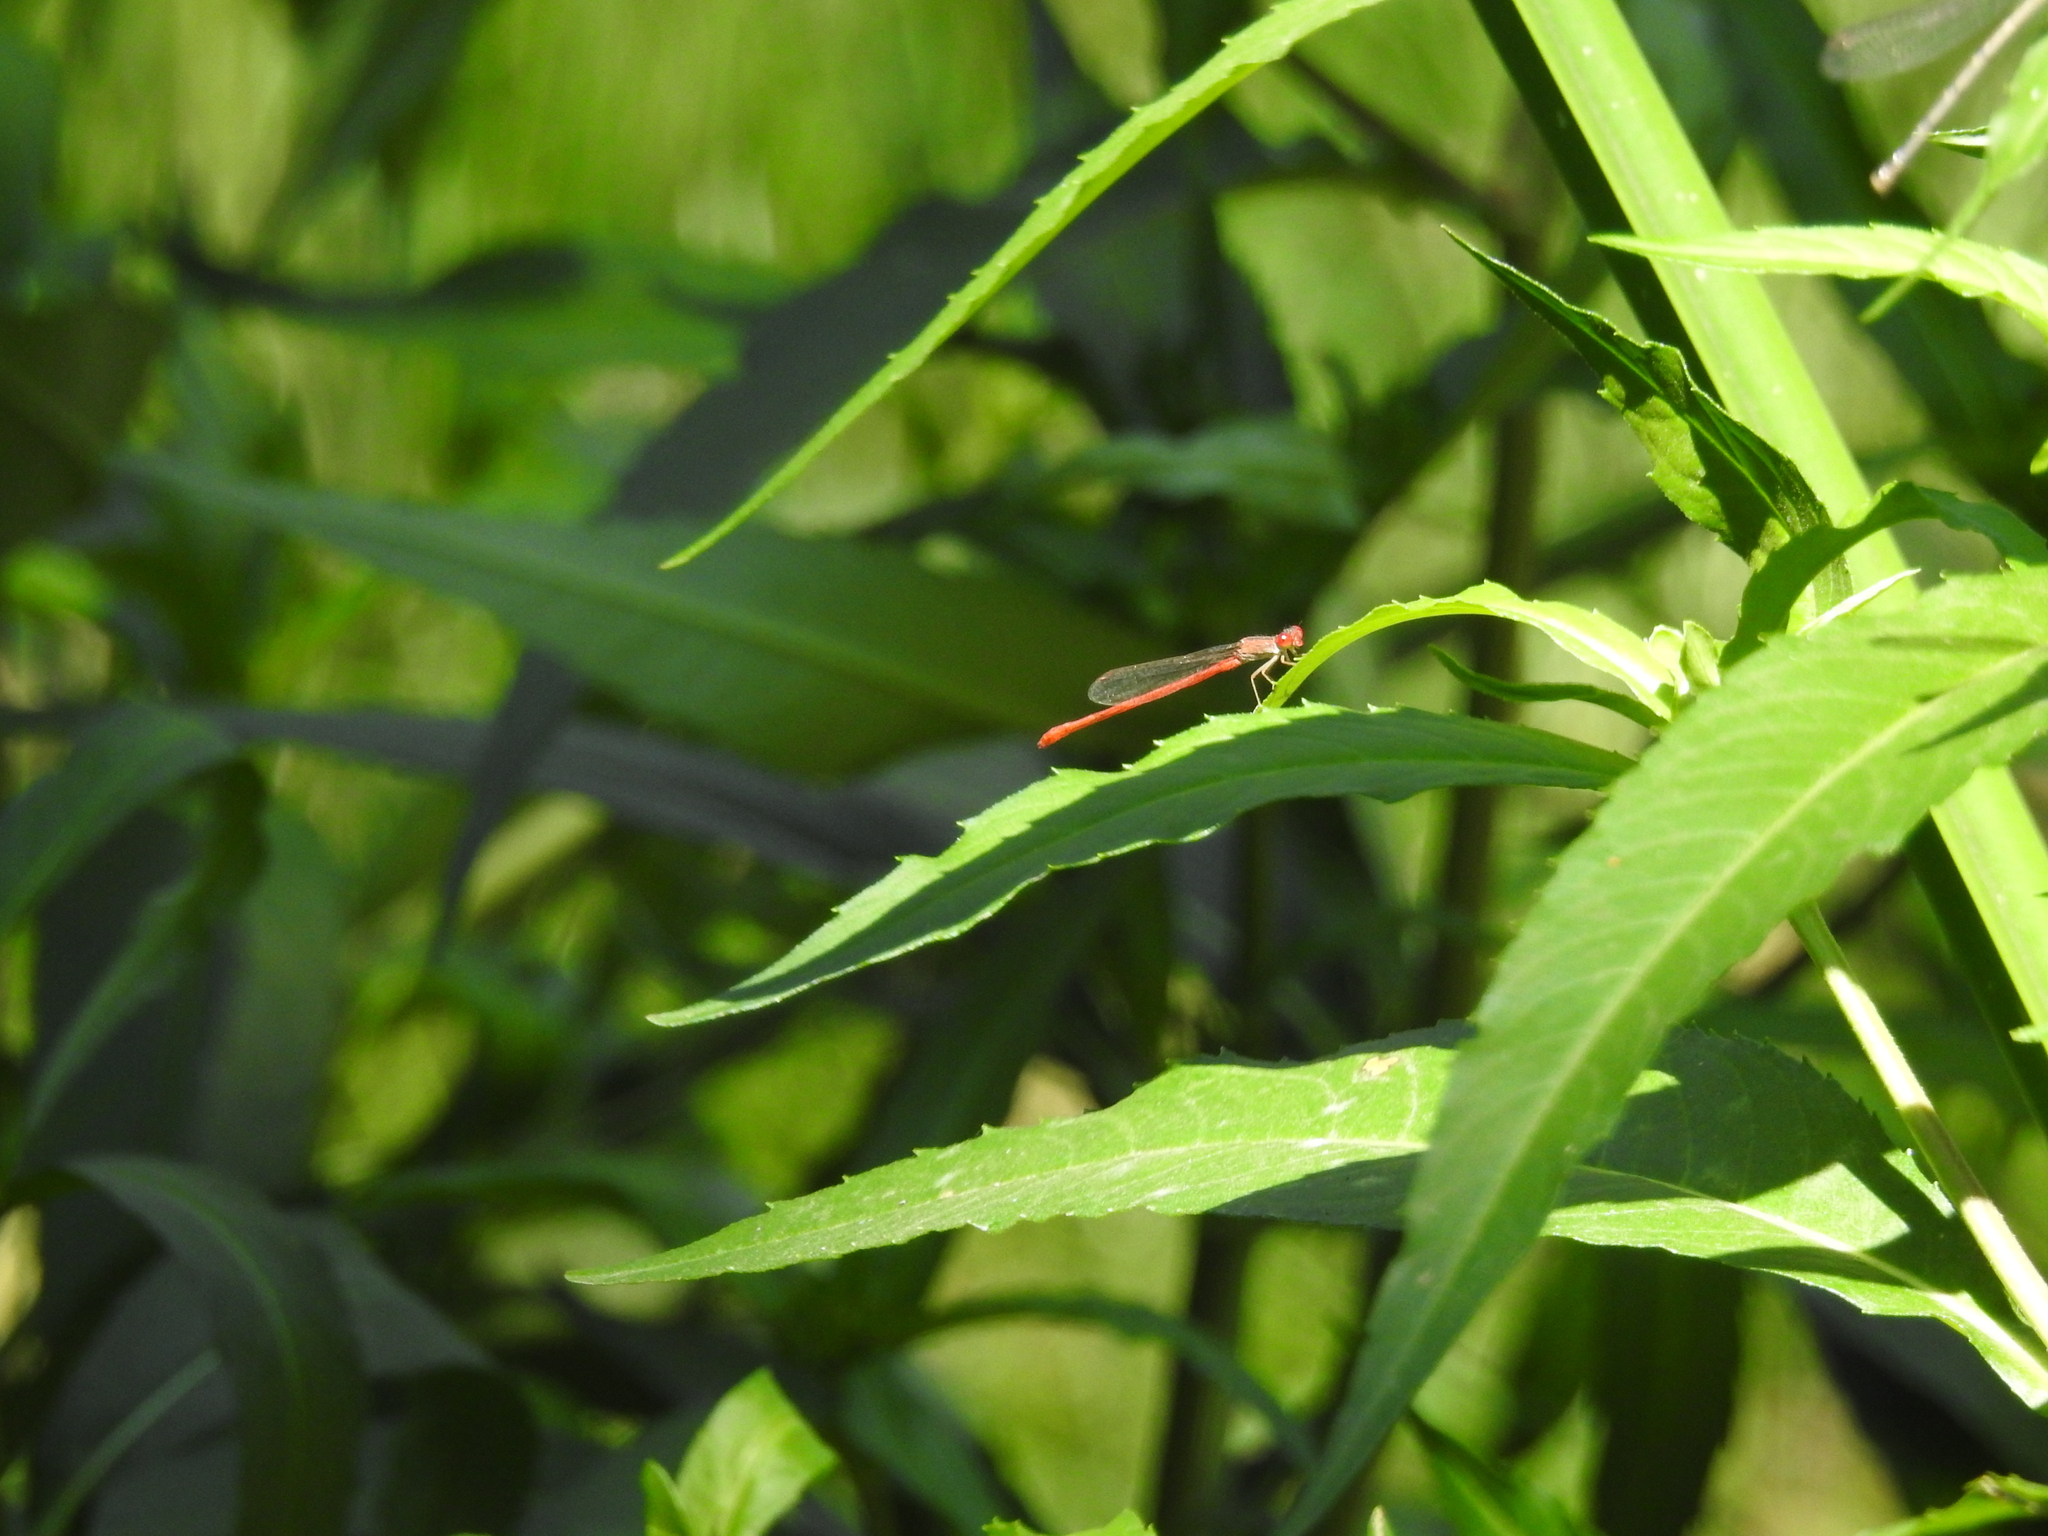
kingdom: Animalia
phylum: Arthropoda
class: Insecta
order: Odonata
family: Coenagrionidae
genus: Telebasis
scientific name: Telebasis salva
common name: Desert firetail
